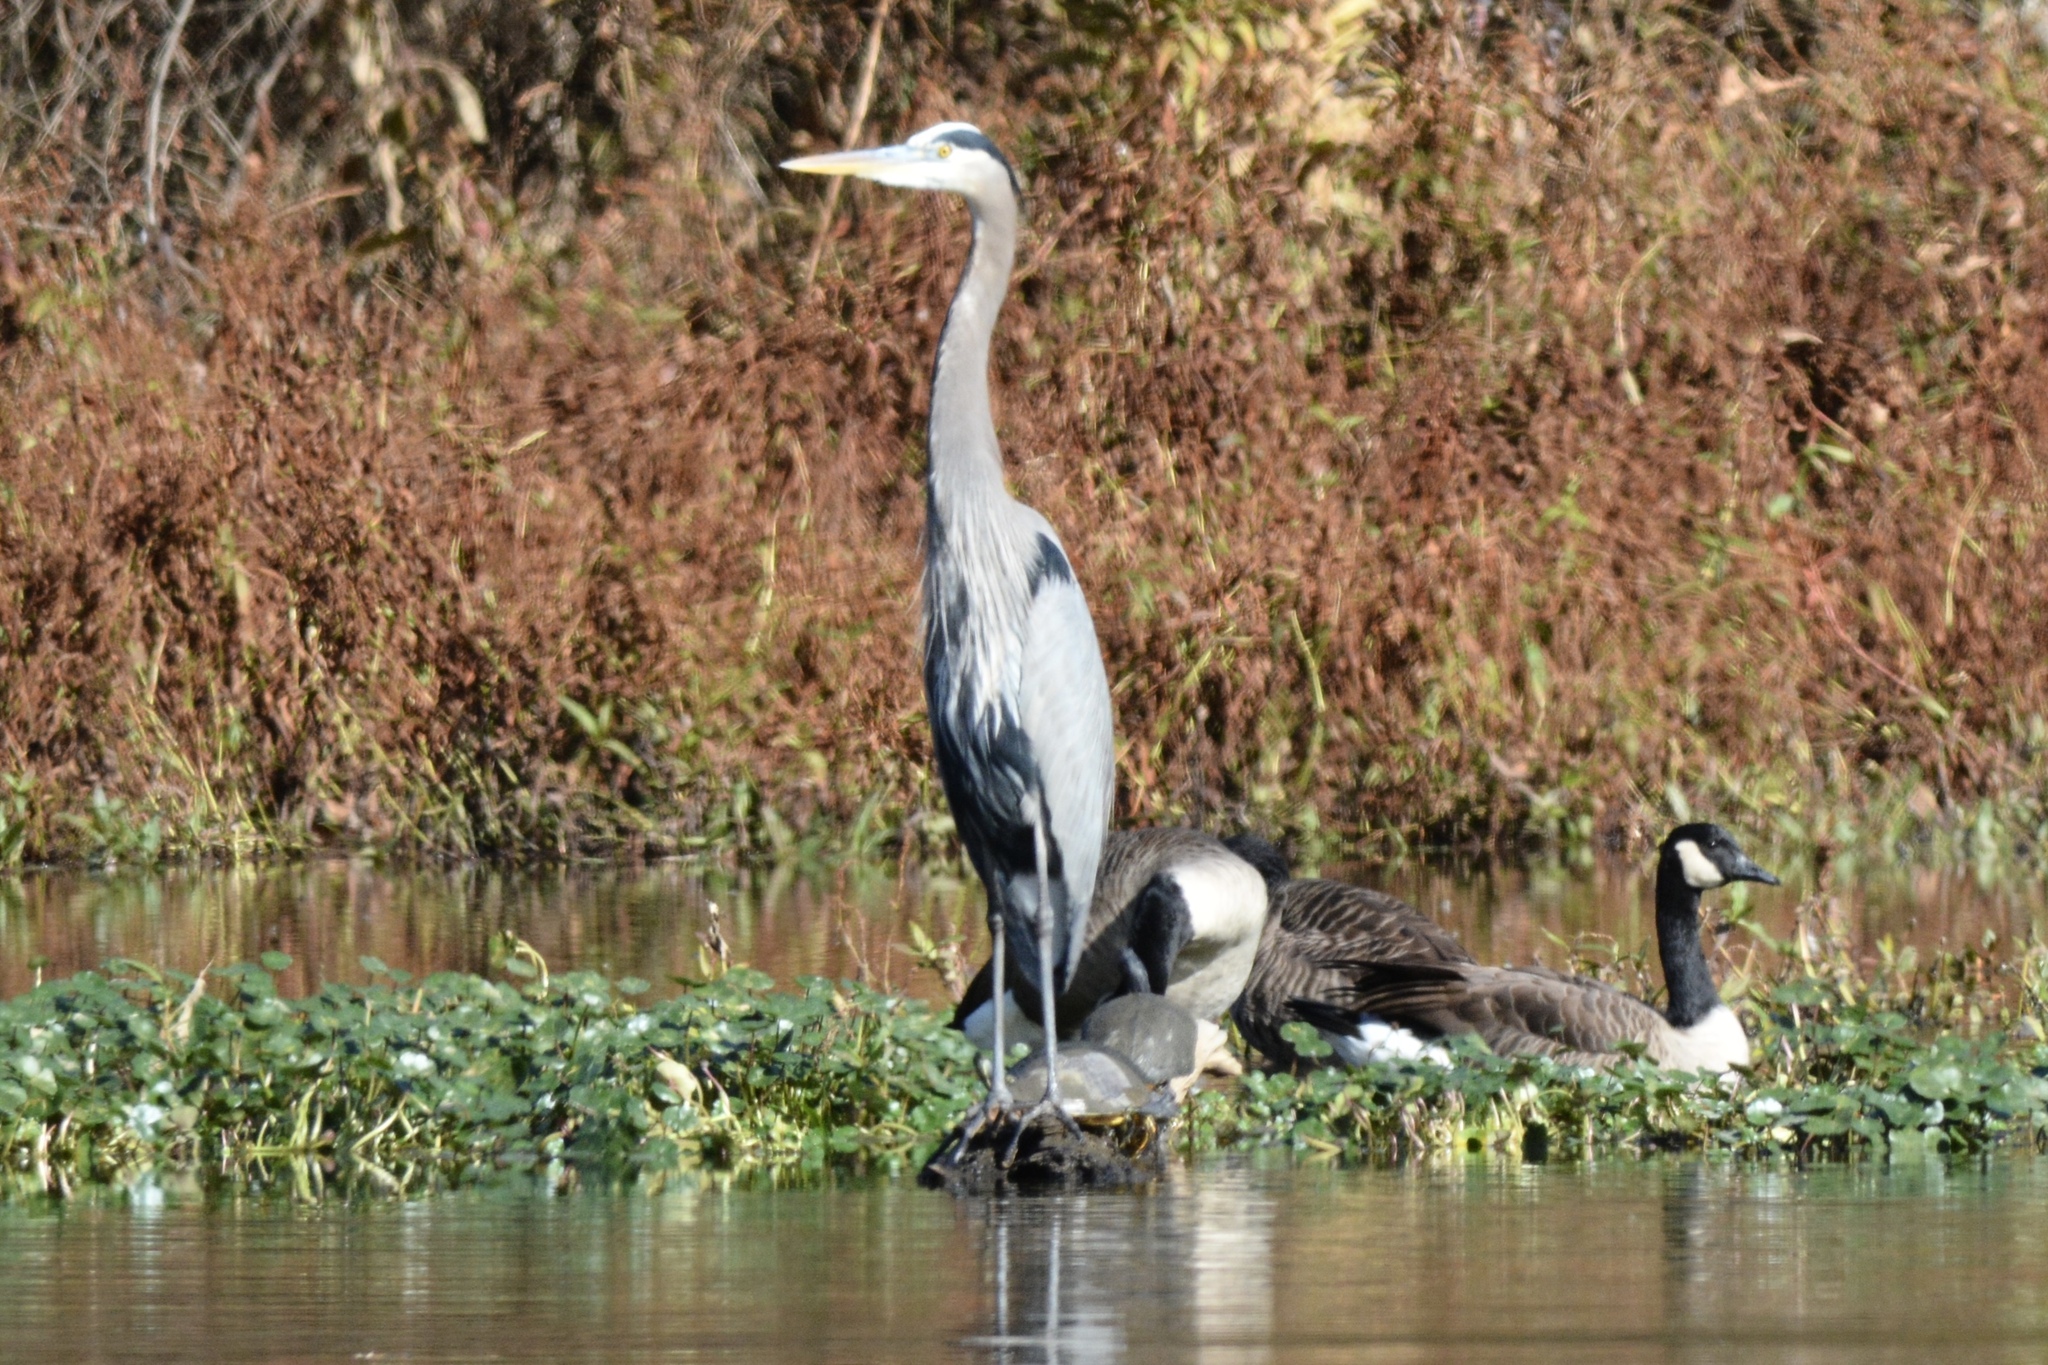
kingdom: Animalia
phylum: Chordata
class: Aves
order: Pelecaniformes
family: Ardeidae
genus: Ardea
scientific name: Ardea herodias
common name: Great blue heron
